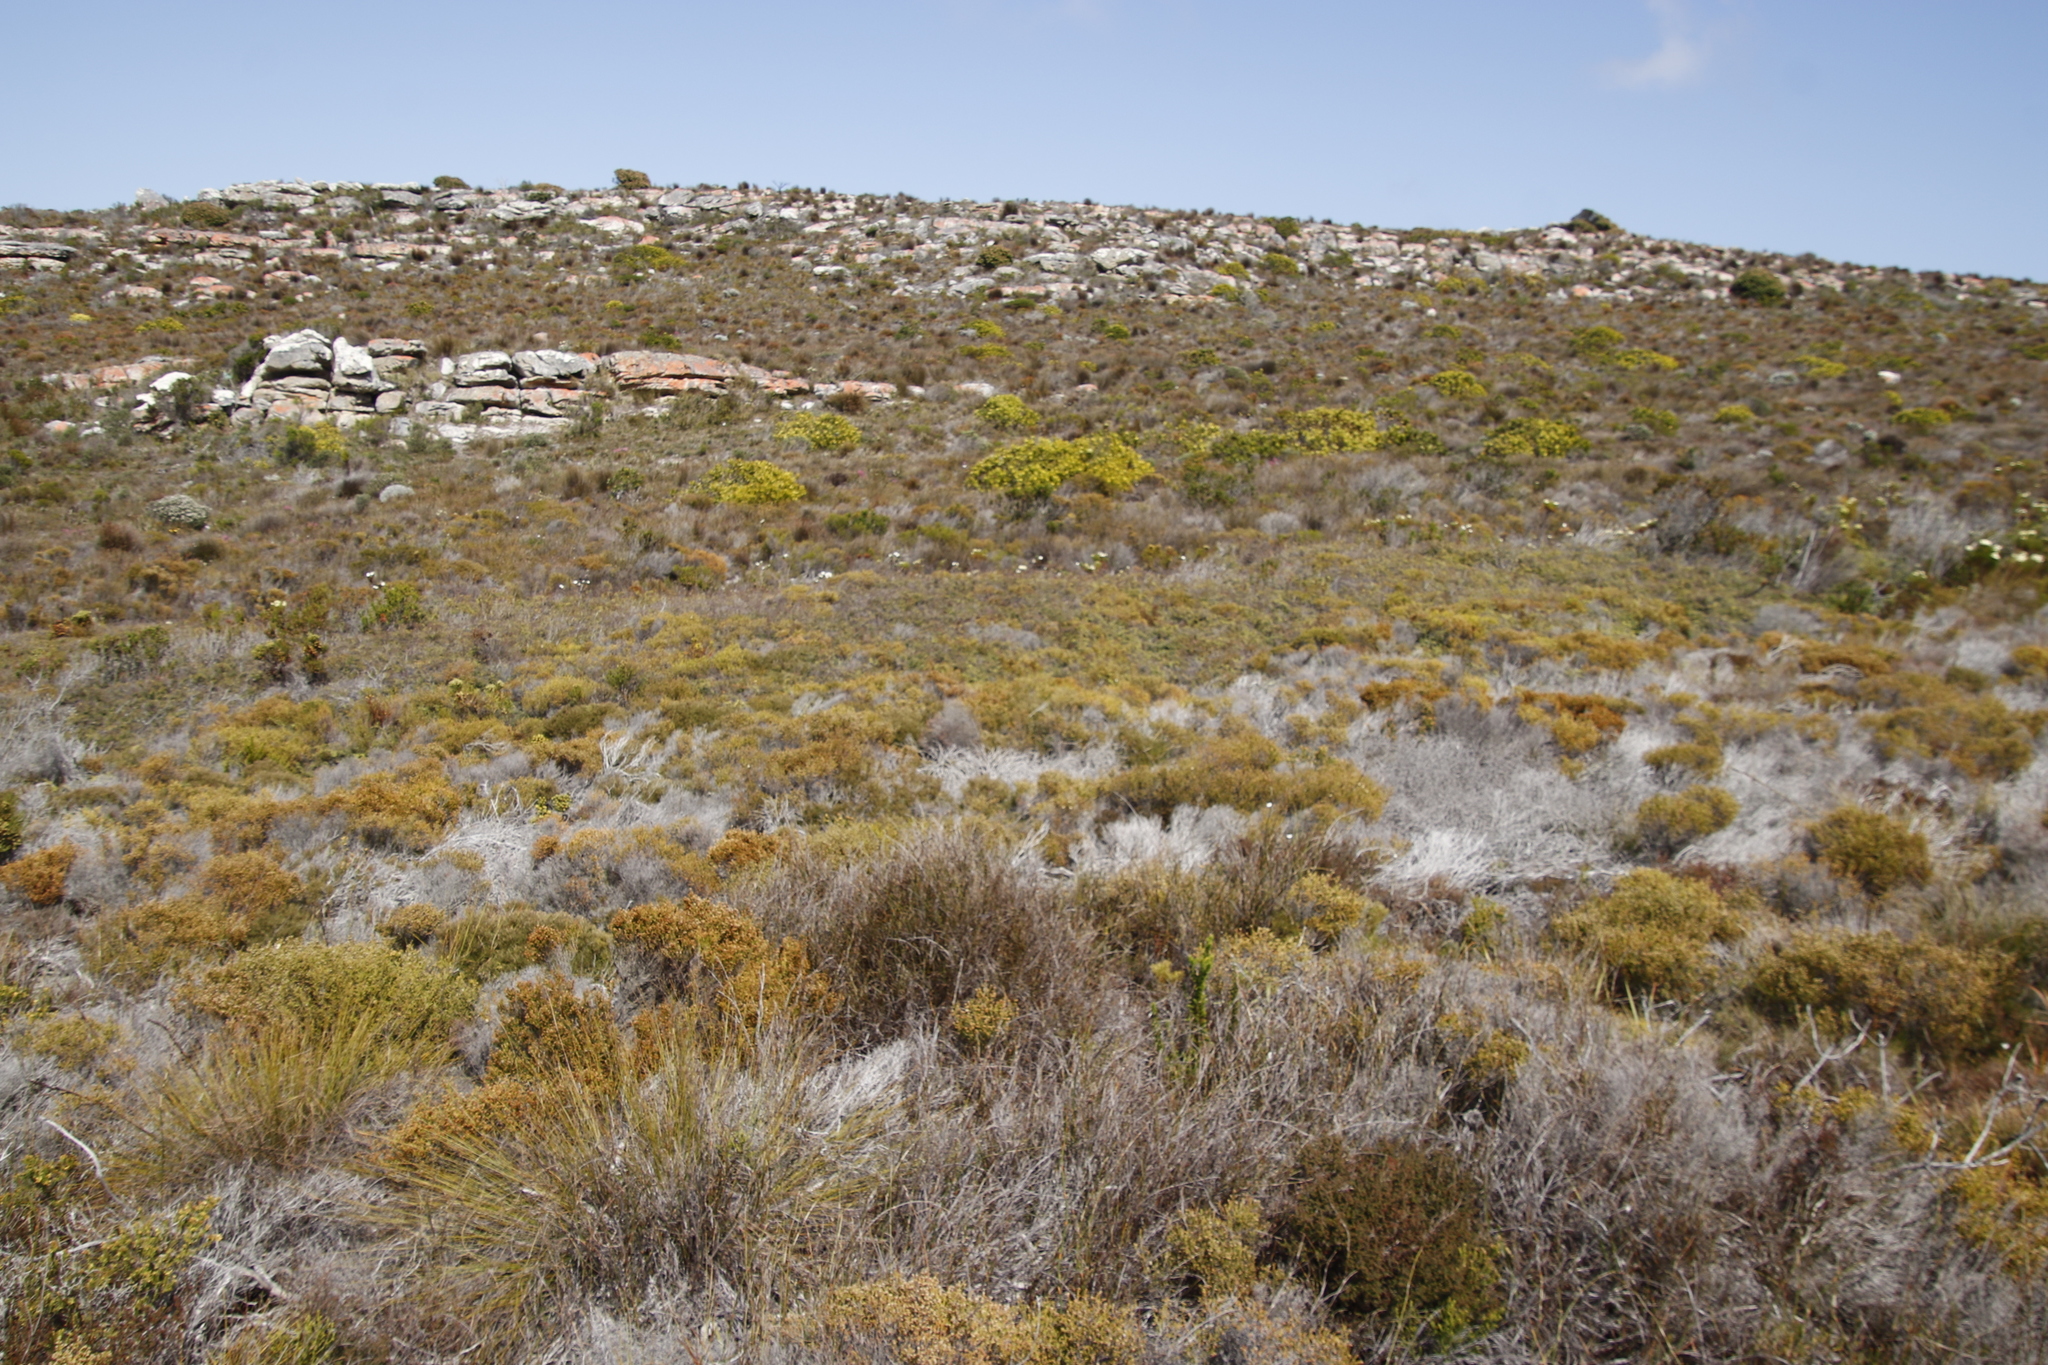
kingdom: Plantae
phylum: Tracheophyta
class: Polypodiopsida
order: Gleicheniales
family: Gleicheniaceae
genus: Gleichenia
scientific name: Gleichenia polypodioides
